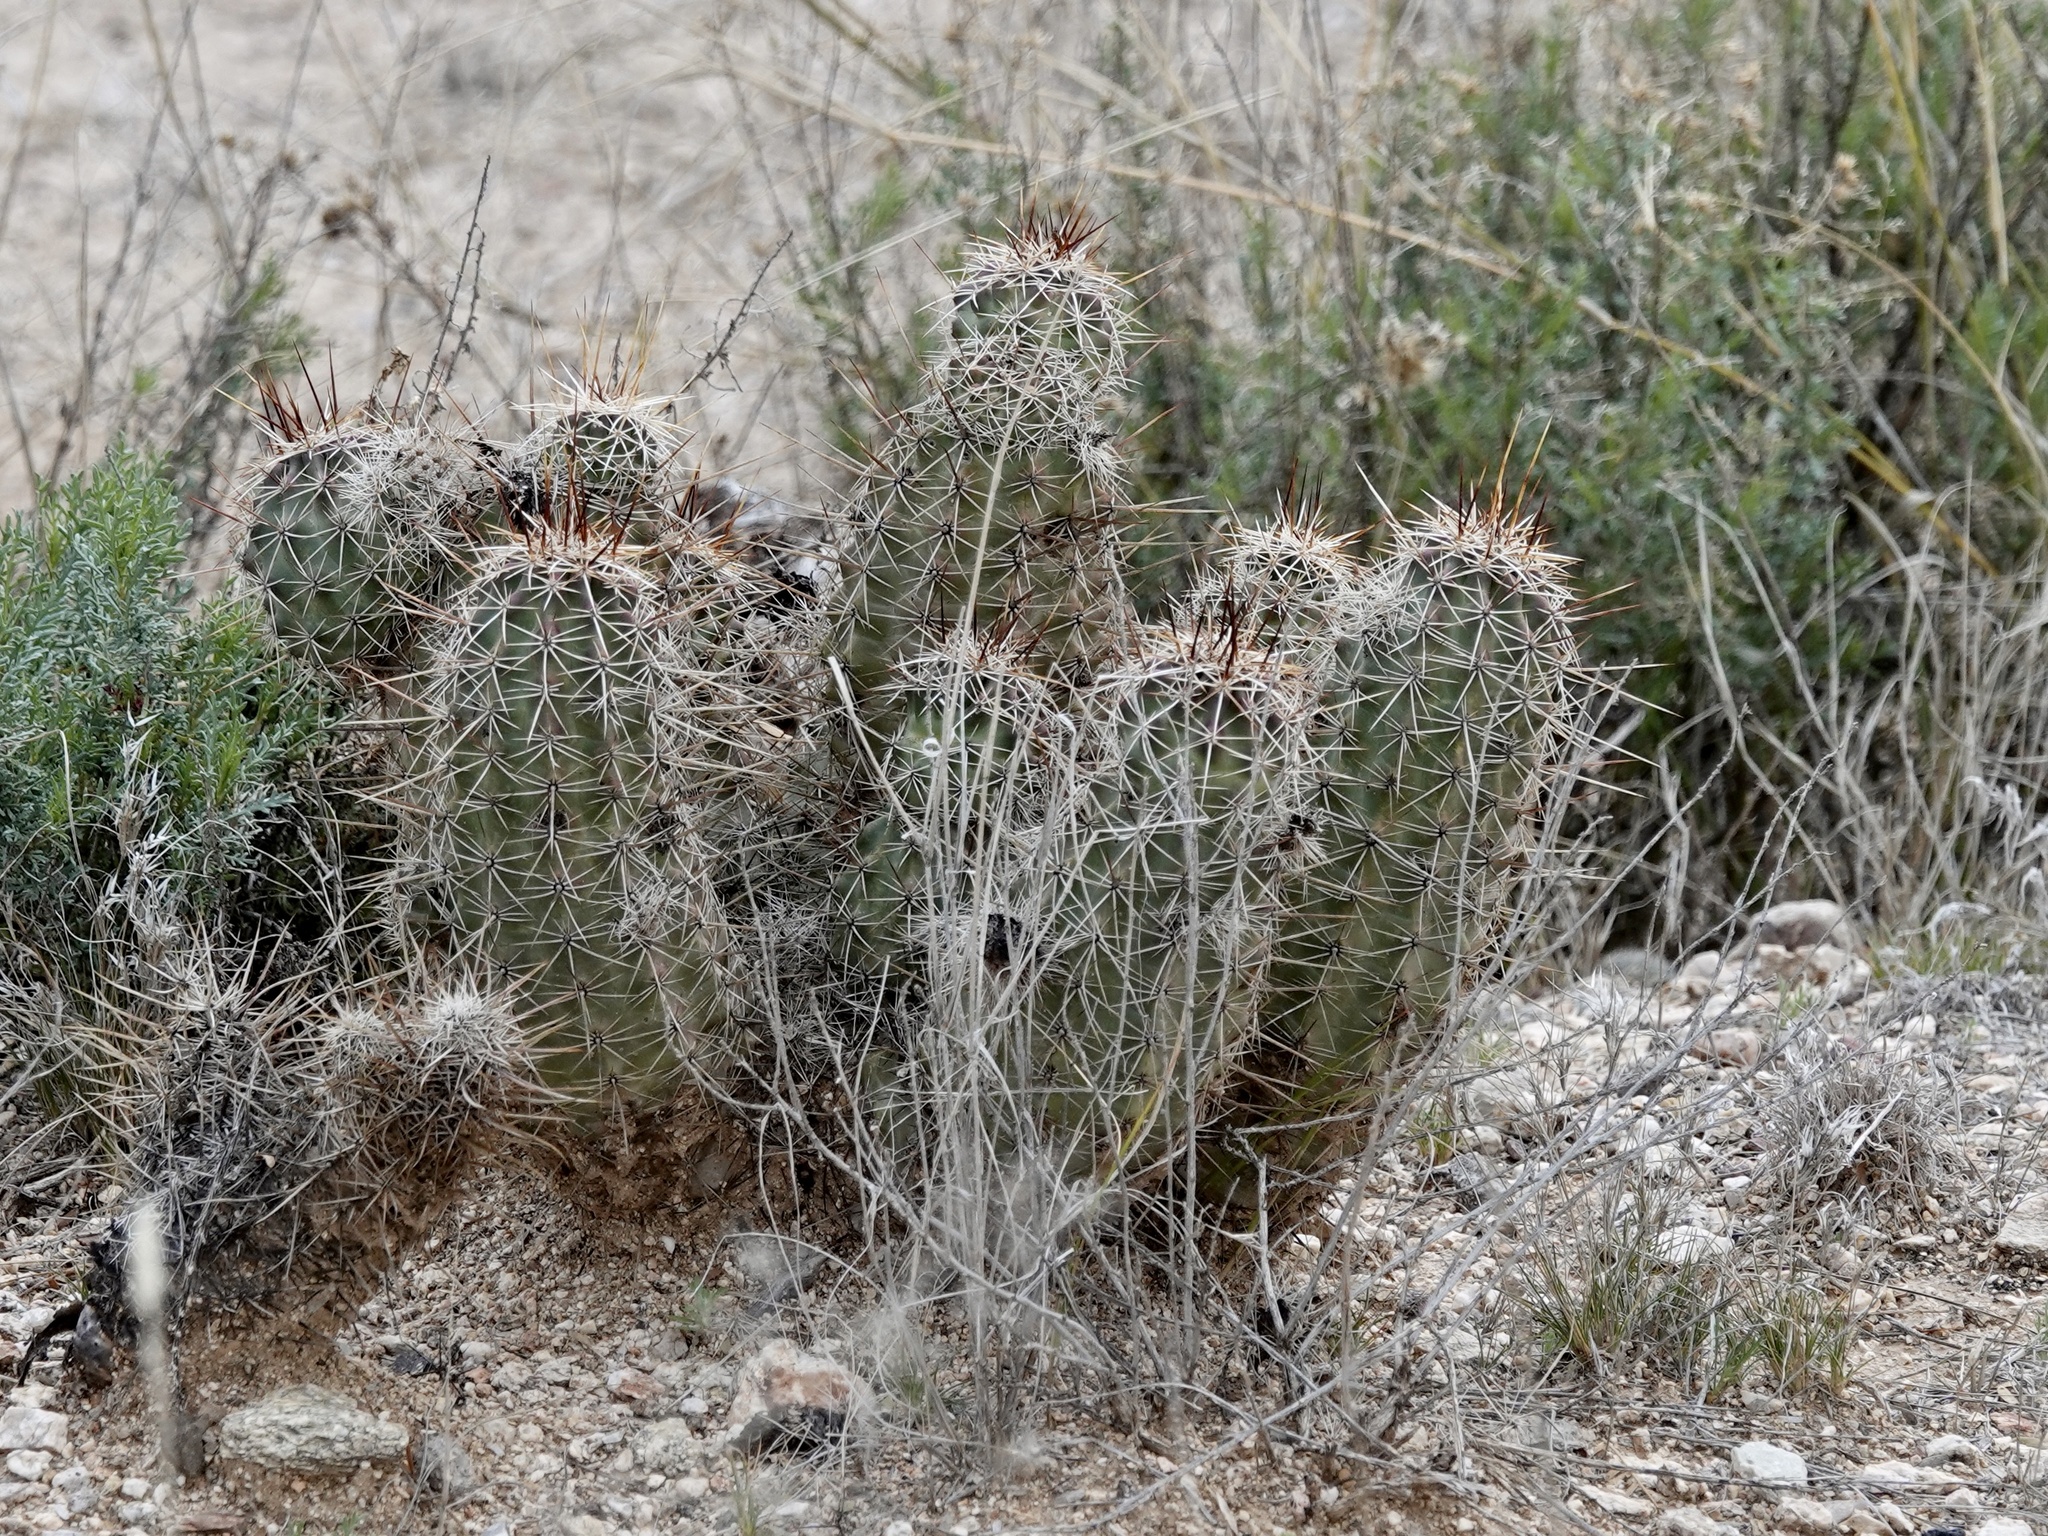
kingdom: Plantae
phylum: Tracheophyta
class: Magnoliopsida
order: Caryophyllales
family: Cactaceae
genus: Echinocereus
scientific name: Echinocereus fasciculatus
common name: Bundle hedgehog
